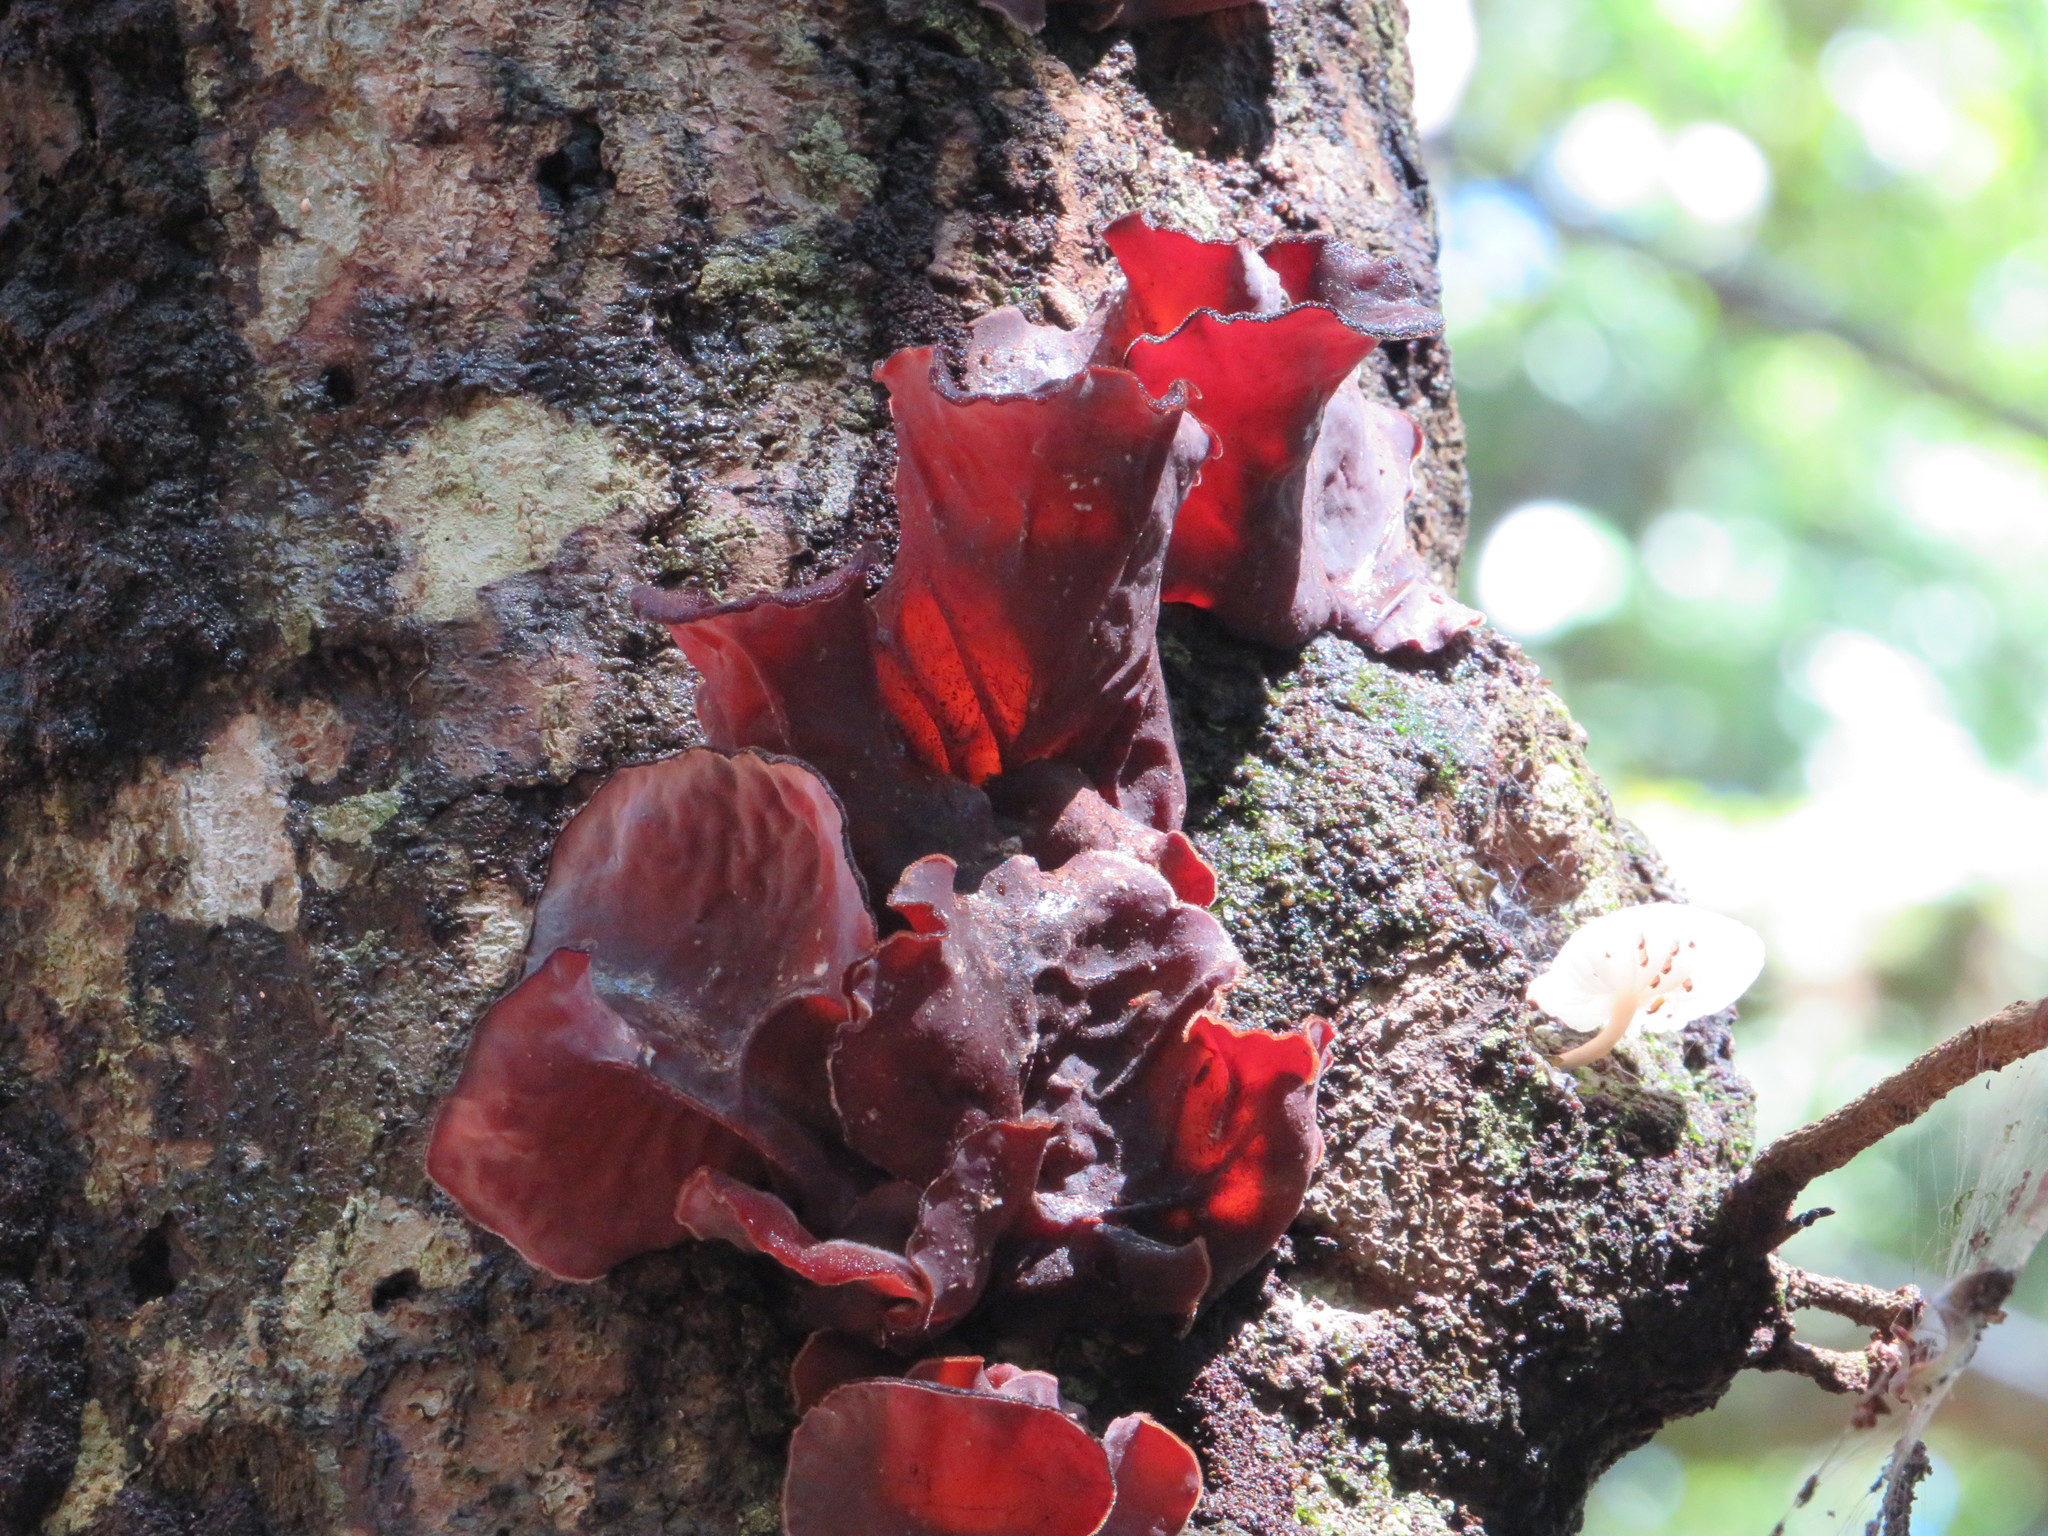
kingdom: Fungi
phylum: Basidiomycota
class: Agaricomycetes
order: Auriculariales
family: Auriculariaceae
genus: Auricularia
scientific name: Auricularia cornea
